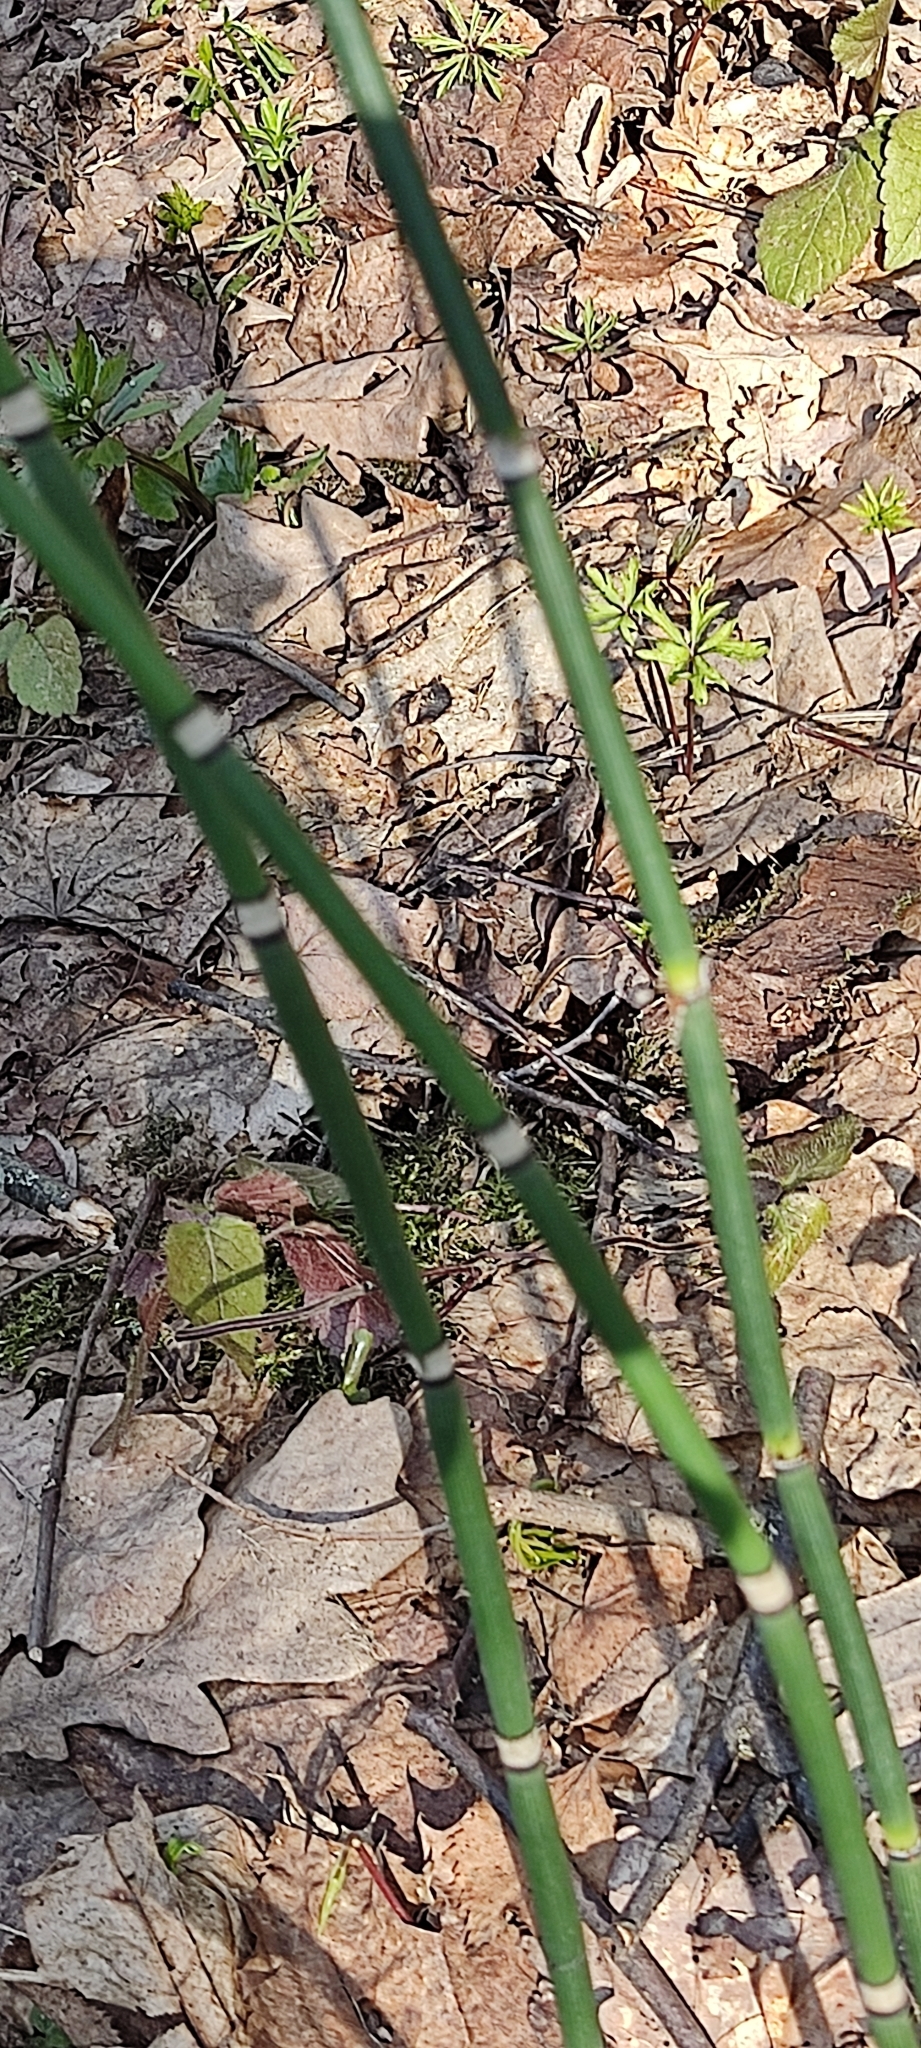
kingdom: Plantae
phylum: Tracheophyta
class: Polypodiopsida
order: Equisetales
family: Equisetaceae
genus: Equisetum
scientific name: Equisetum hyemale
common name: Rough horsetail
